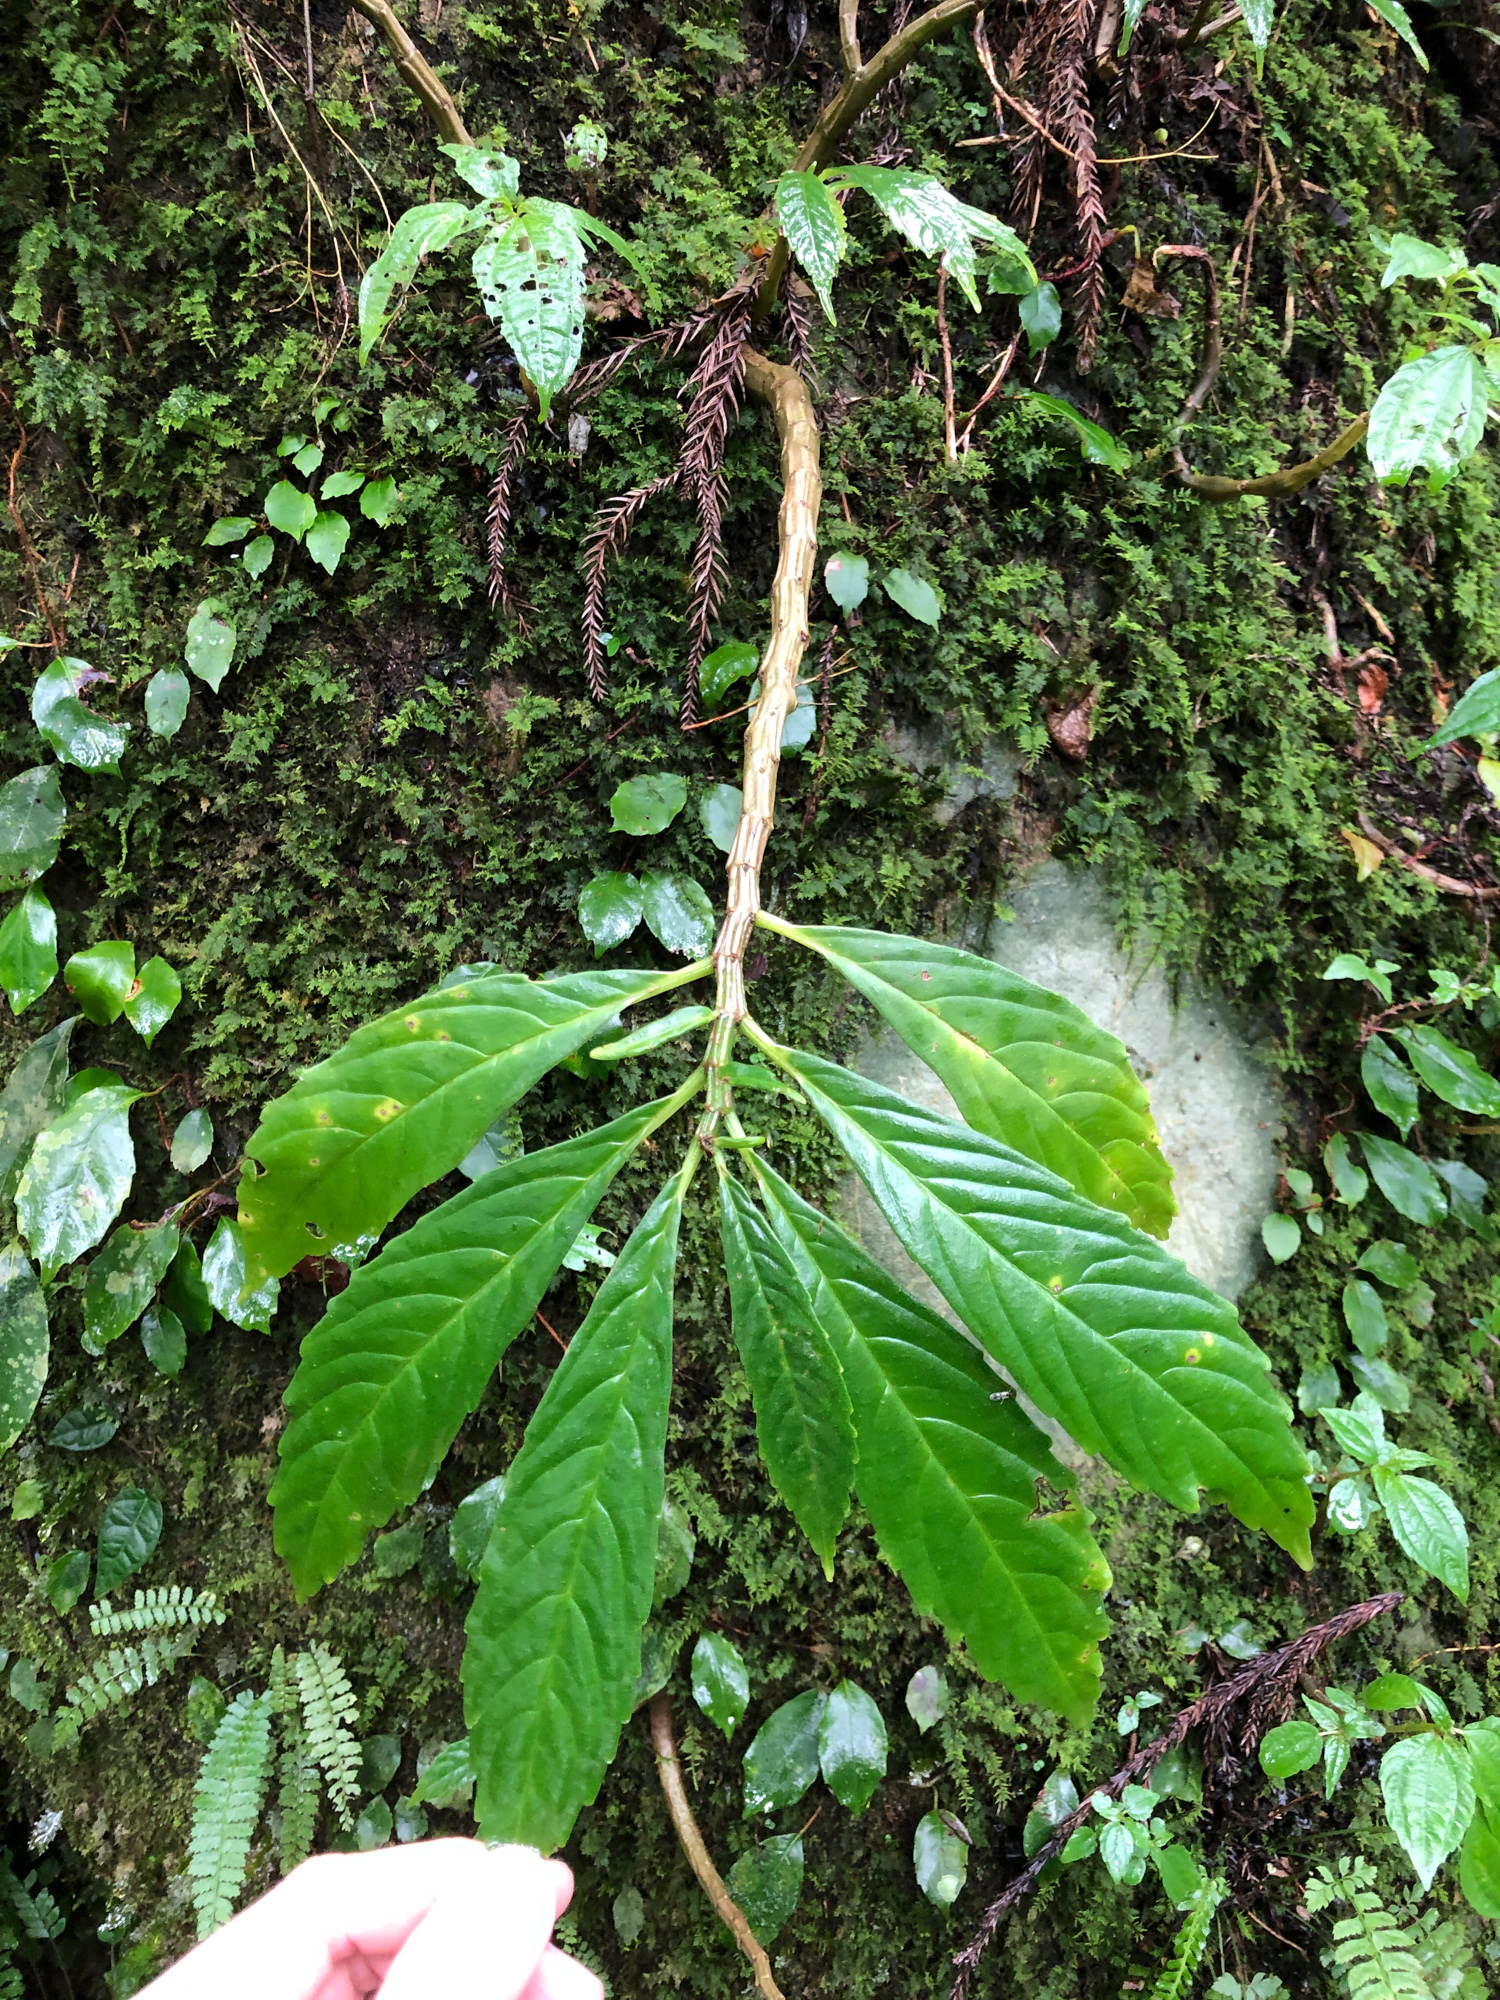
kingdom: Plantae
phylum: Tracheophyta
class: Magnoliopsida
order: Rosales
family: Urticaceae
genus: Procris
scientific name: Procris
